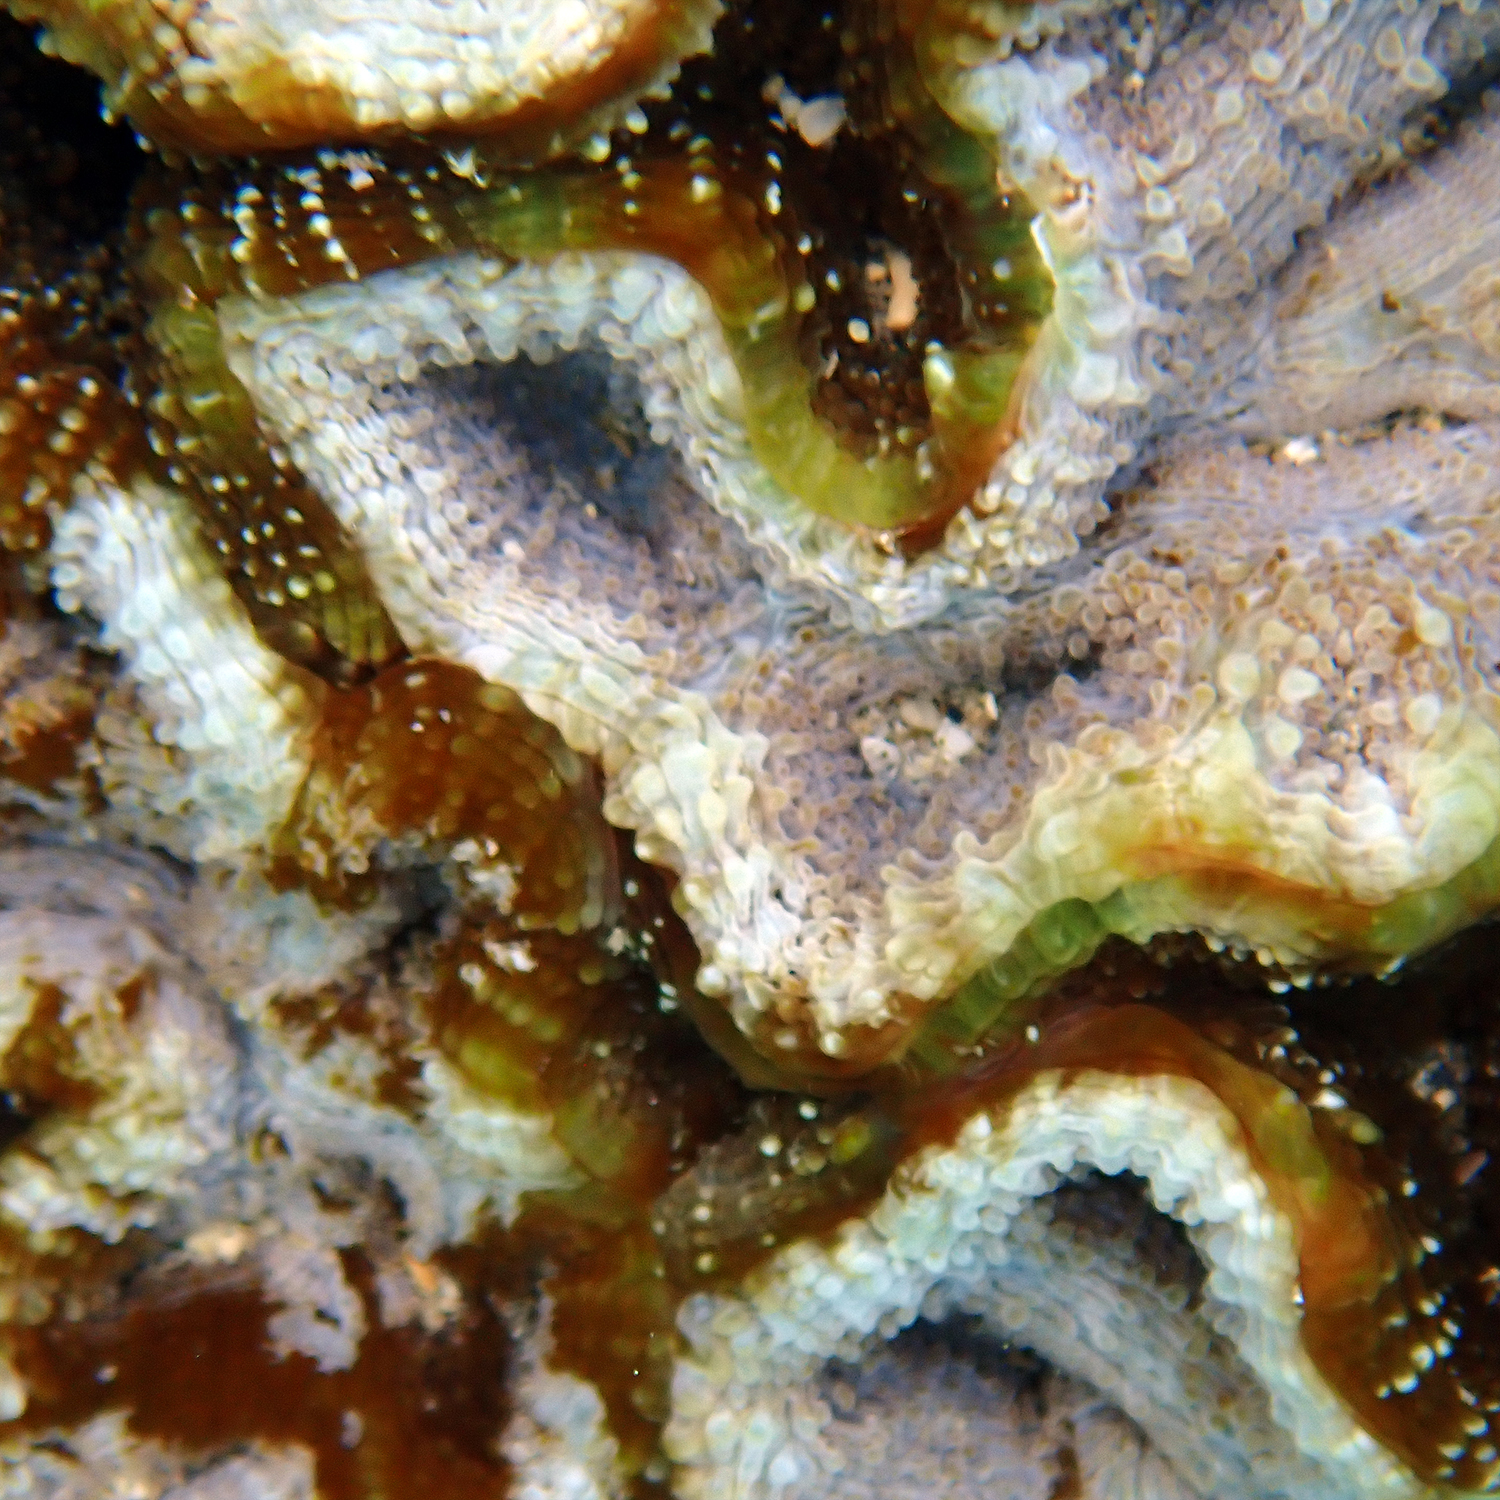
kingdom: Animalia
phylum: Cnidaria
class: Anthozoa
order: Scleractinia
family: Lobophylliidae
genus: Homophyllia
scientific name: Homophyllia bowerbanki
